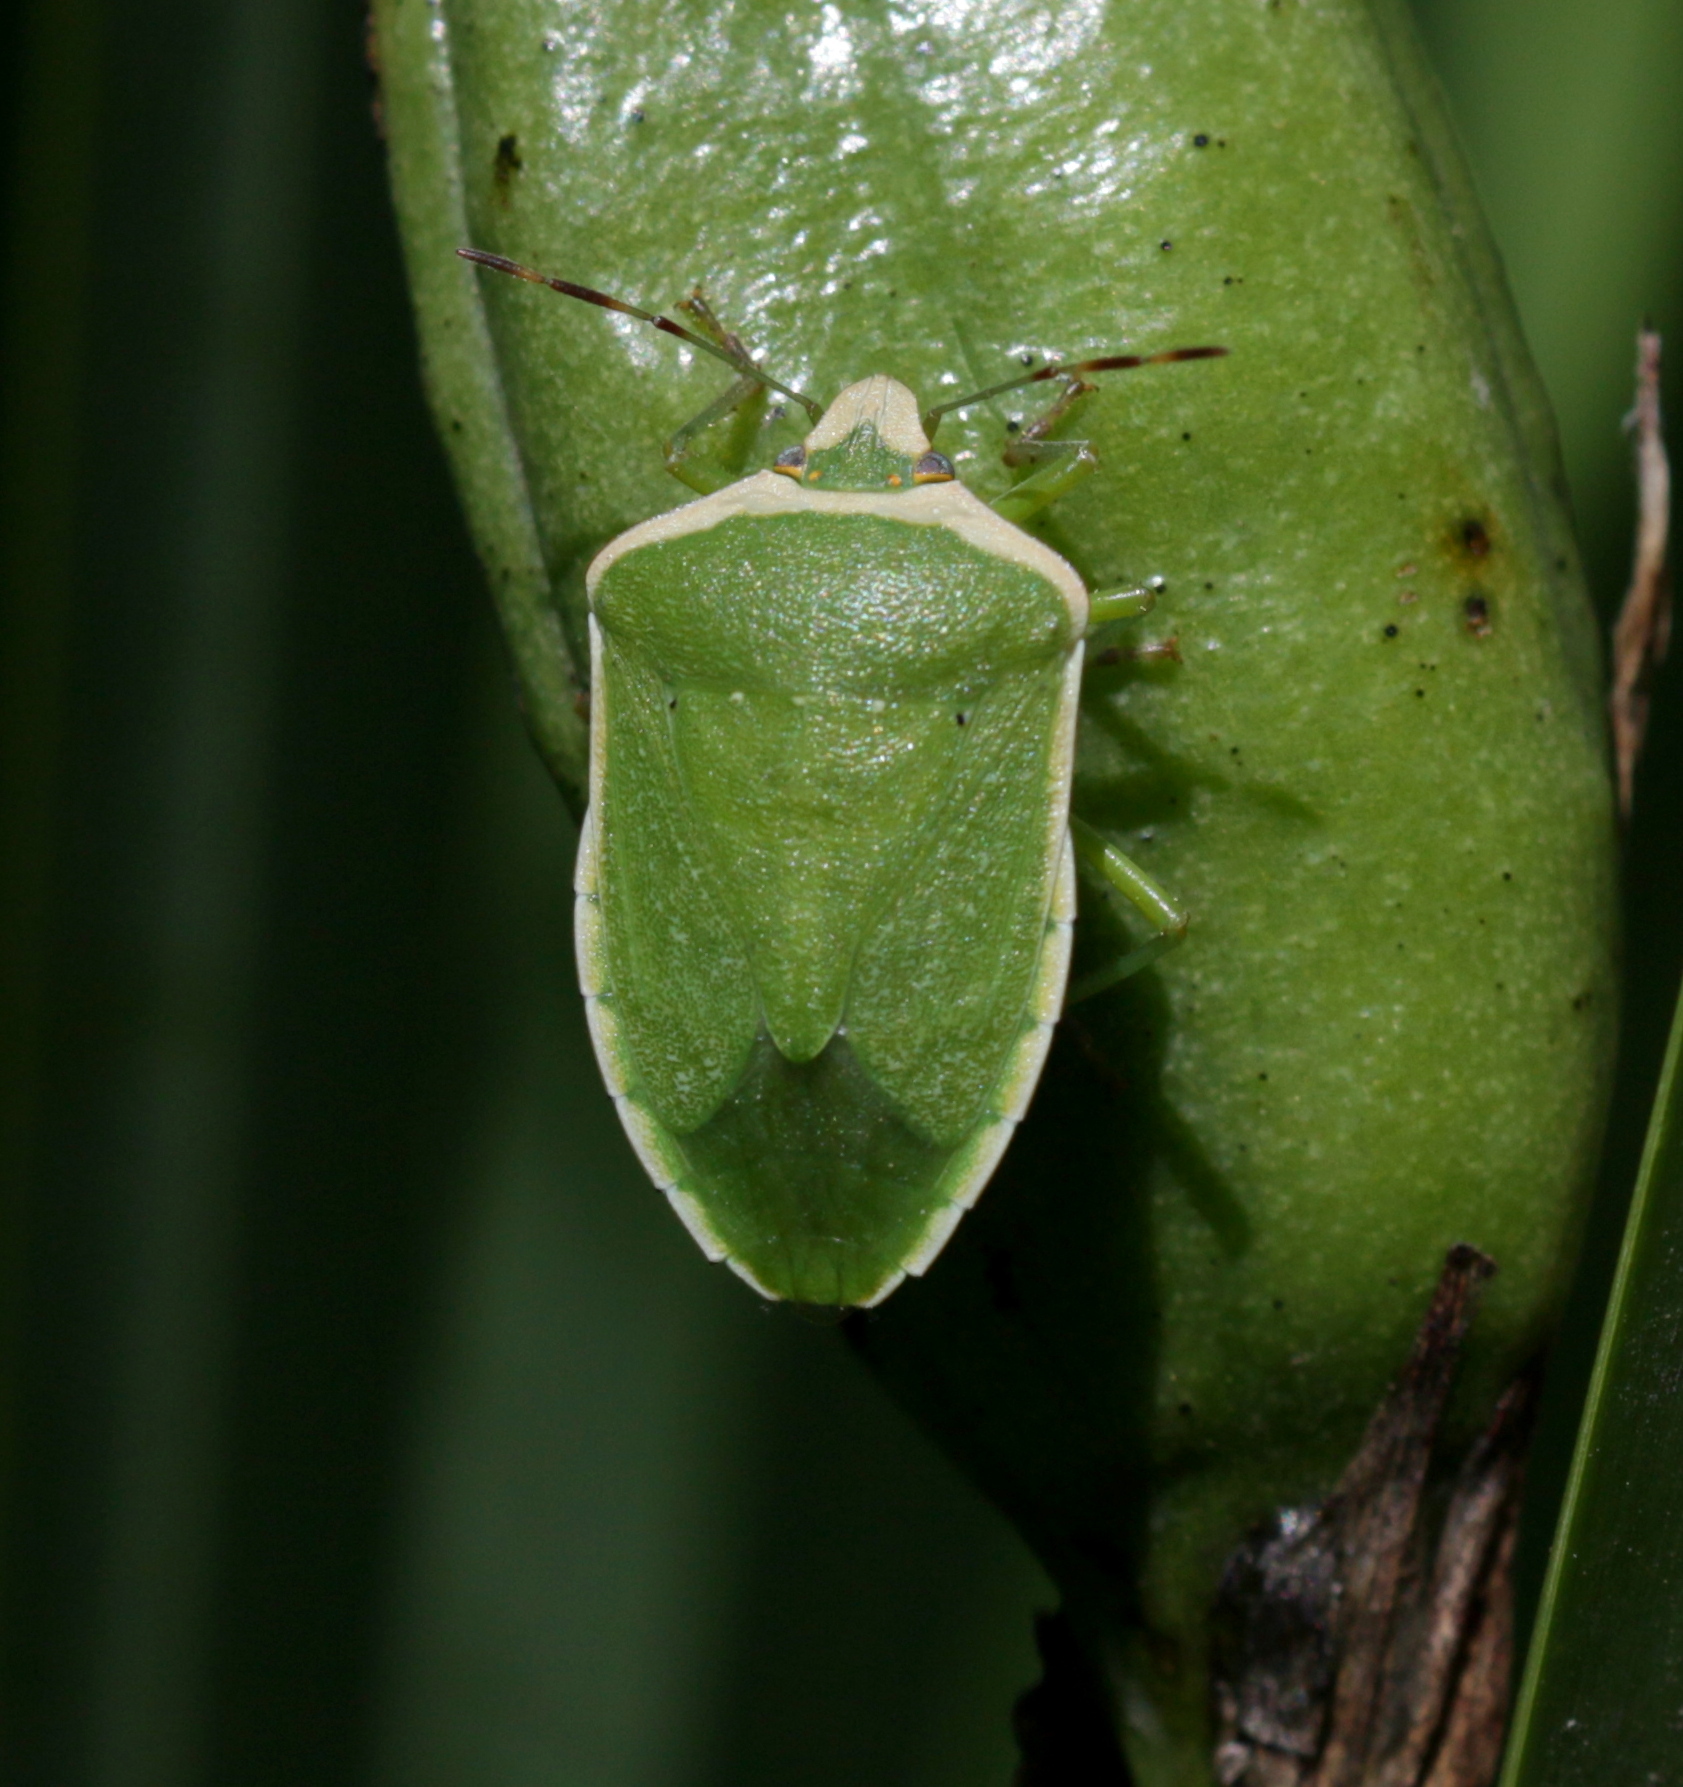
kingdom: Animalia
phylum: Arthropoda
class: Insecta
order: Hemiptera
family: Pentatomidae
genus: Nezara
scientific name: Nezara viridula
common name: Southern green stink bug
